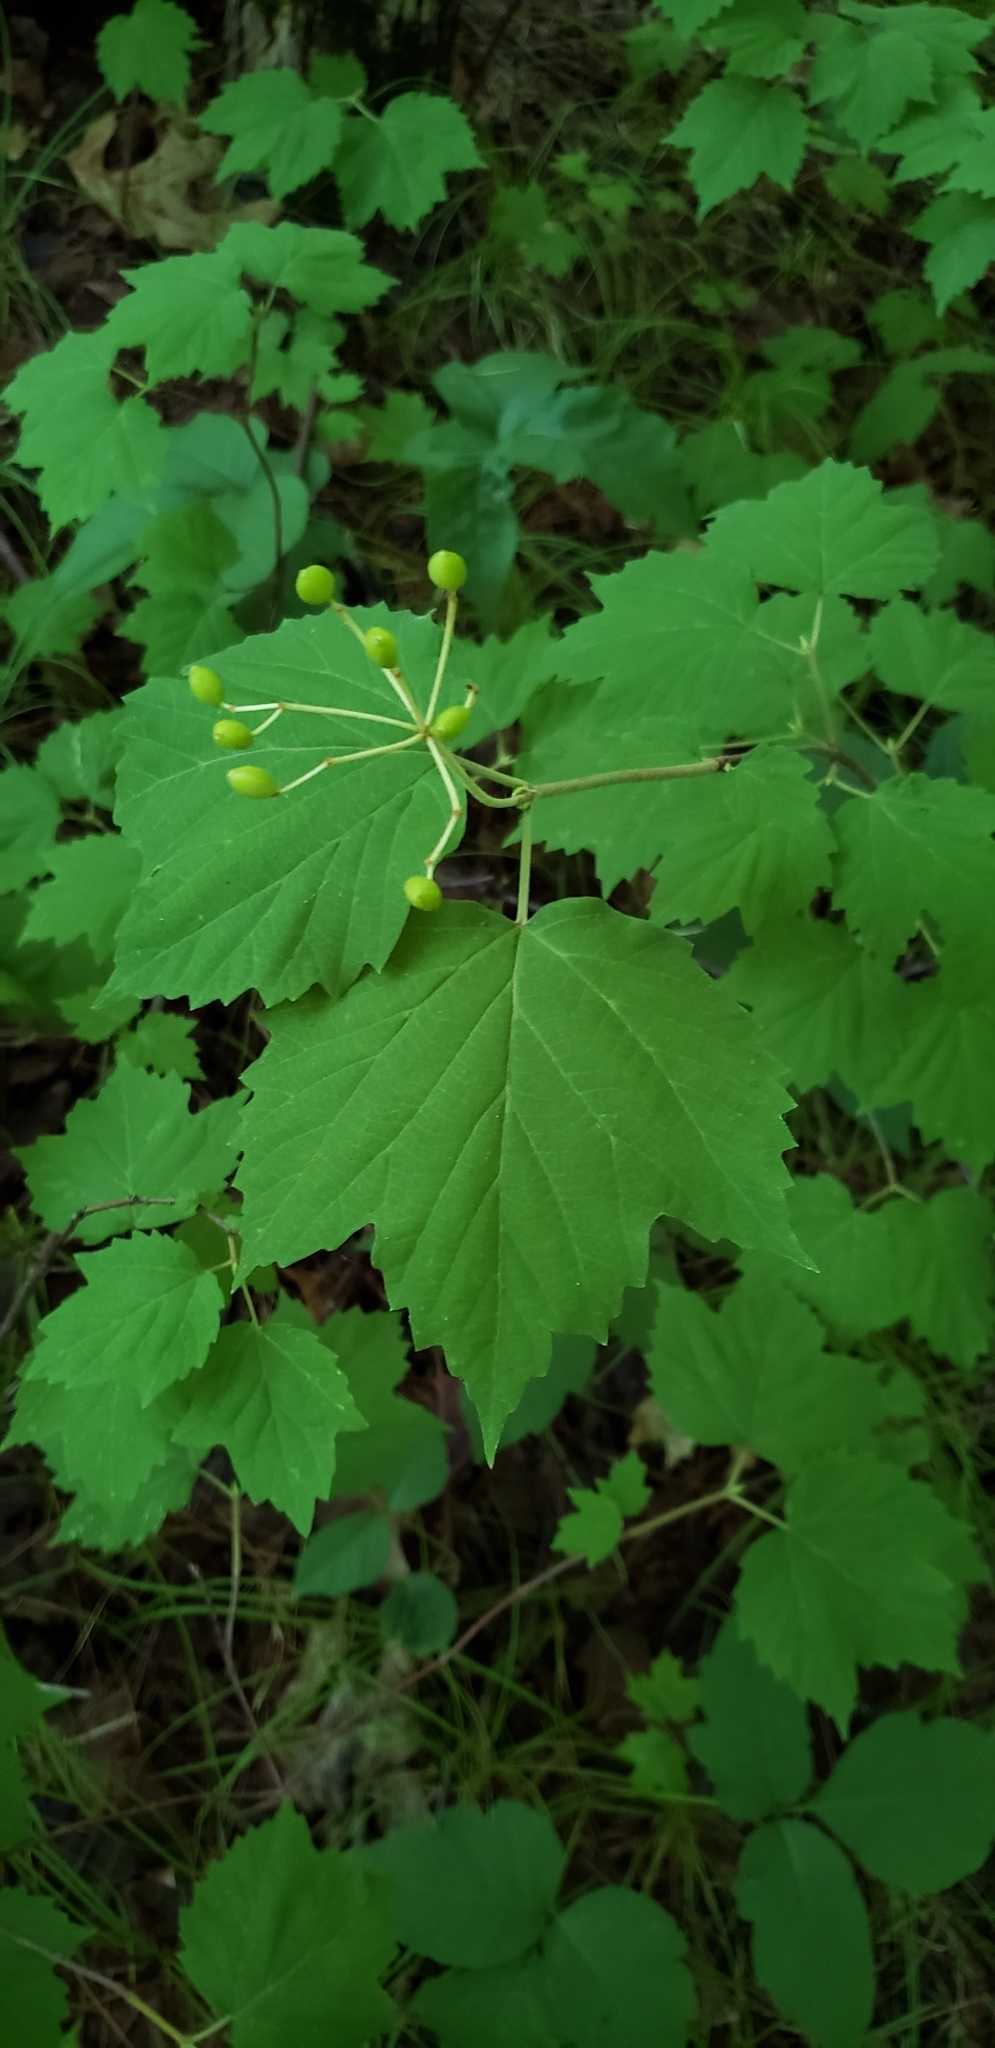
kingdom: Plantae
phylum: Tracheophyta
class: Magnoliopsida
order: Dipsacales
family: Viburnaceae
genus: Viburnum
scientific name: Viburnum acerifolium
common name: Dockmackie
